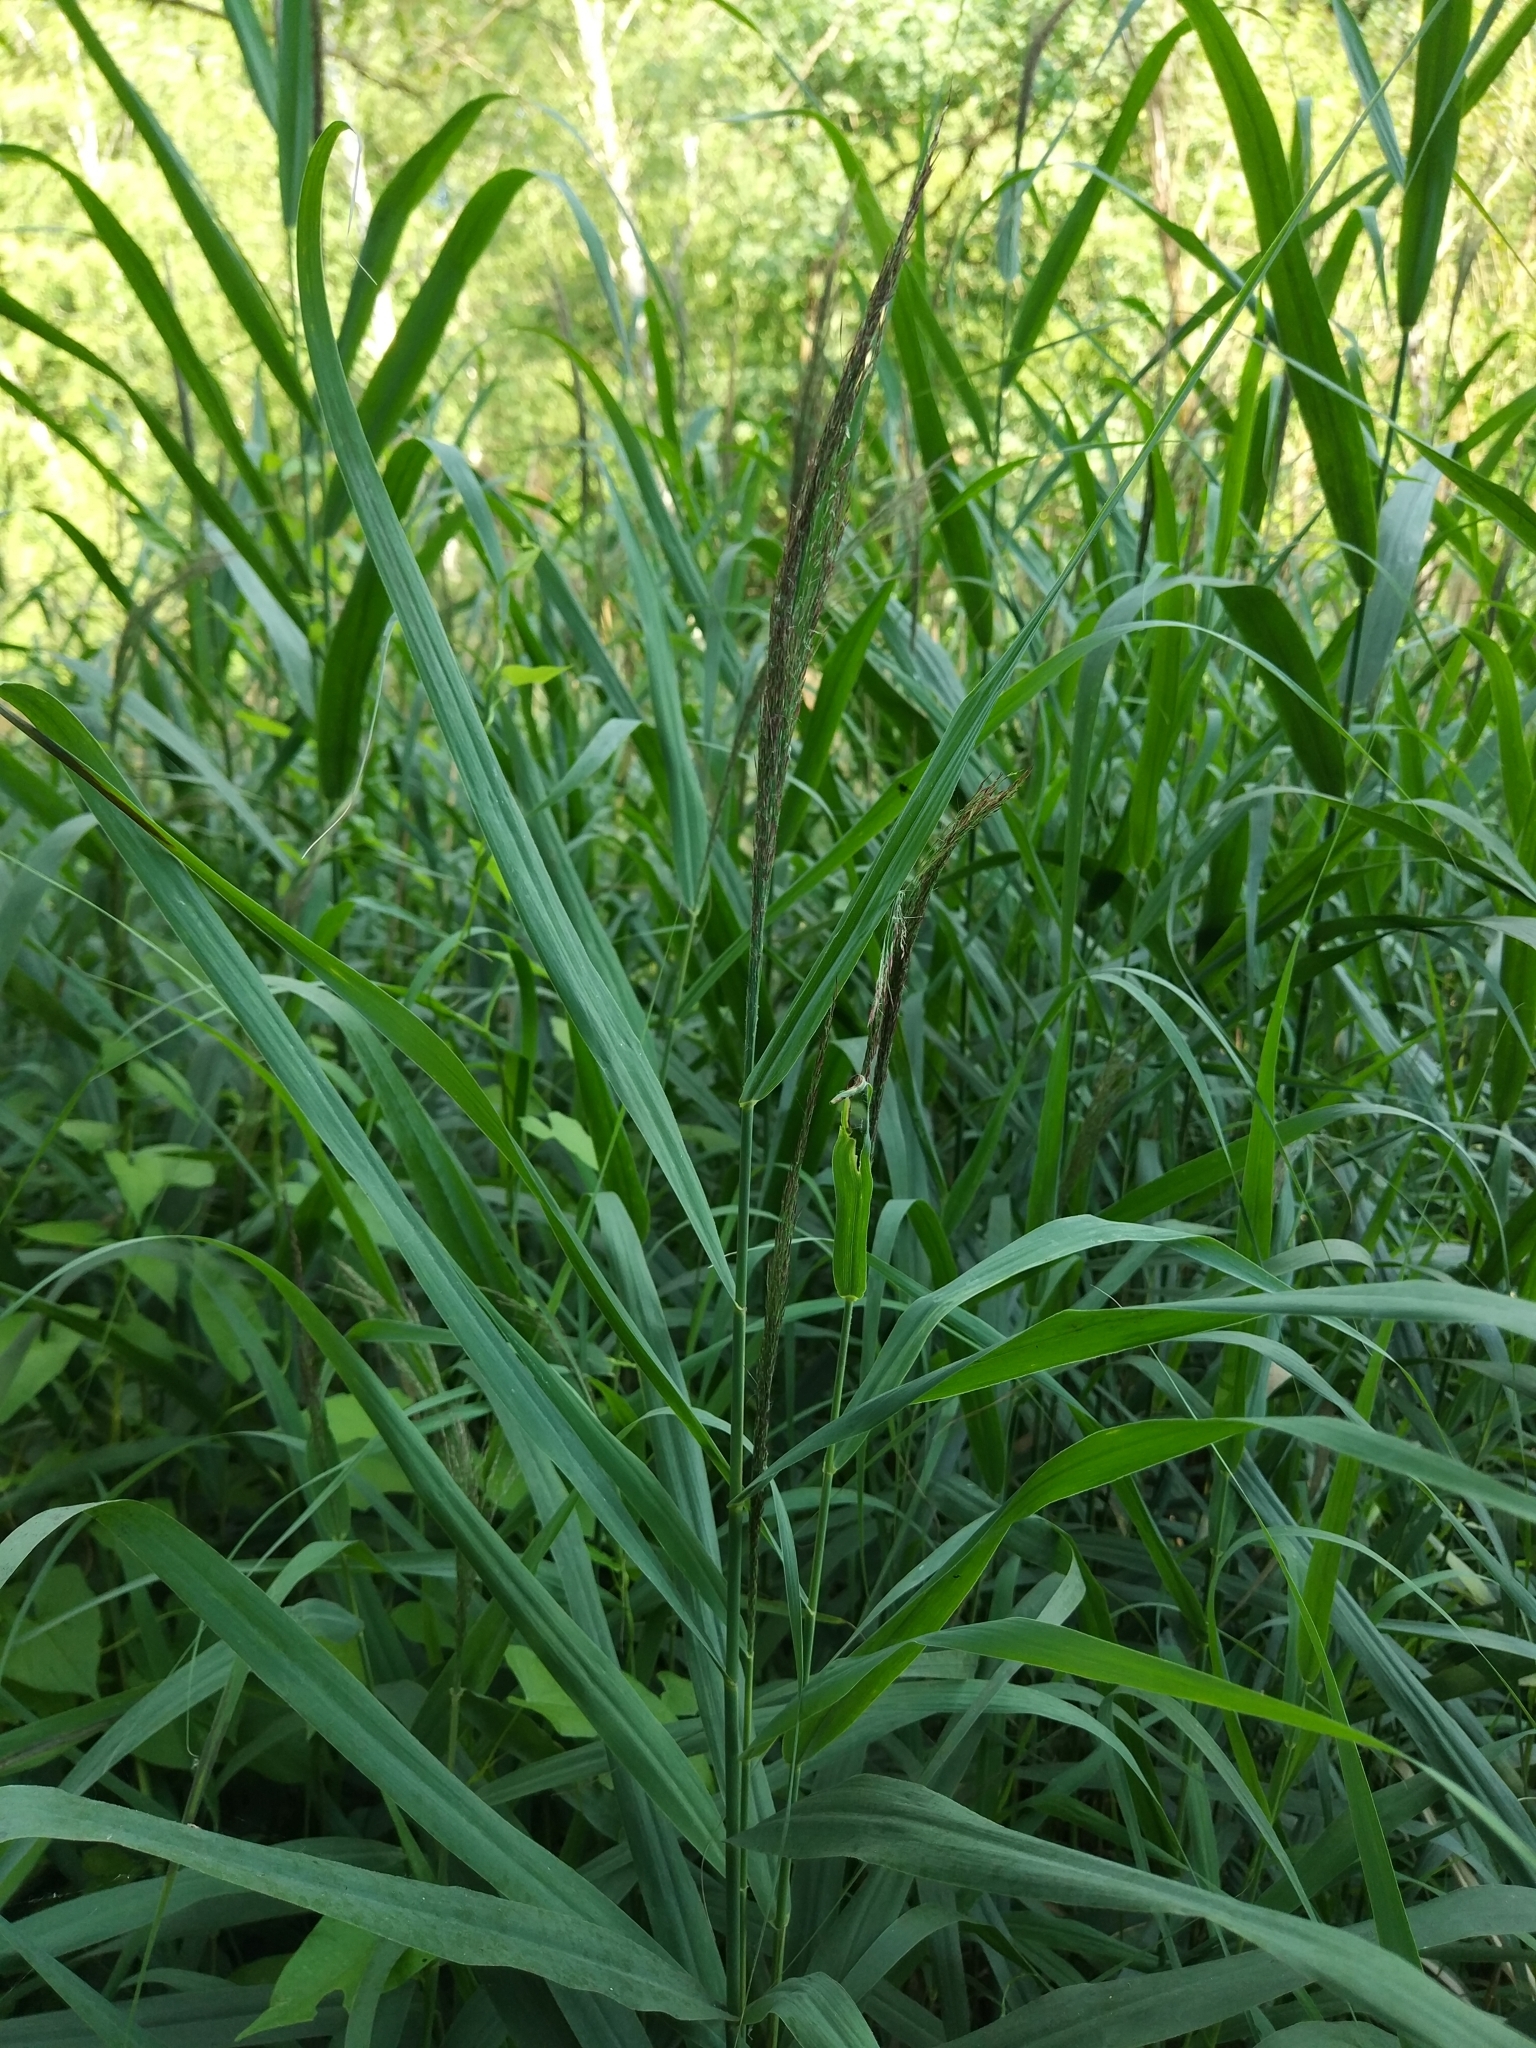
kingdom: Plantae
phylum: Tracheophyta
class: Liliopsida
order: Poales
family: Poaceae
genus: Phragmites
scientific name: Phragmites australis
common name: Common reed
